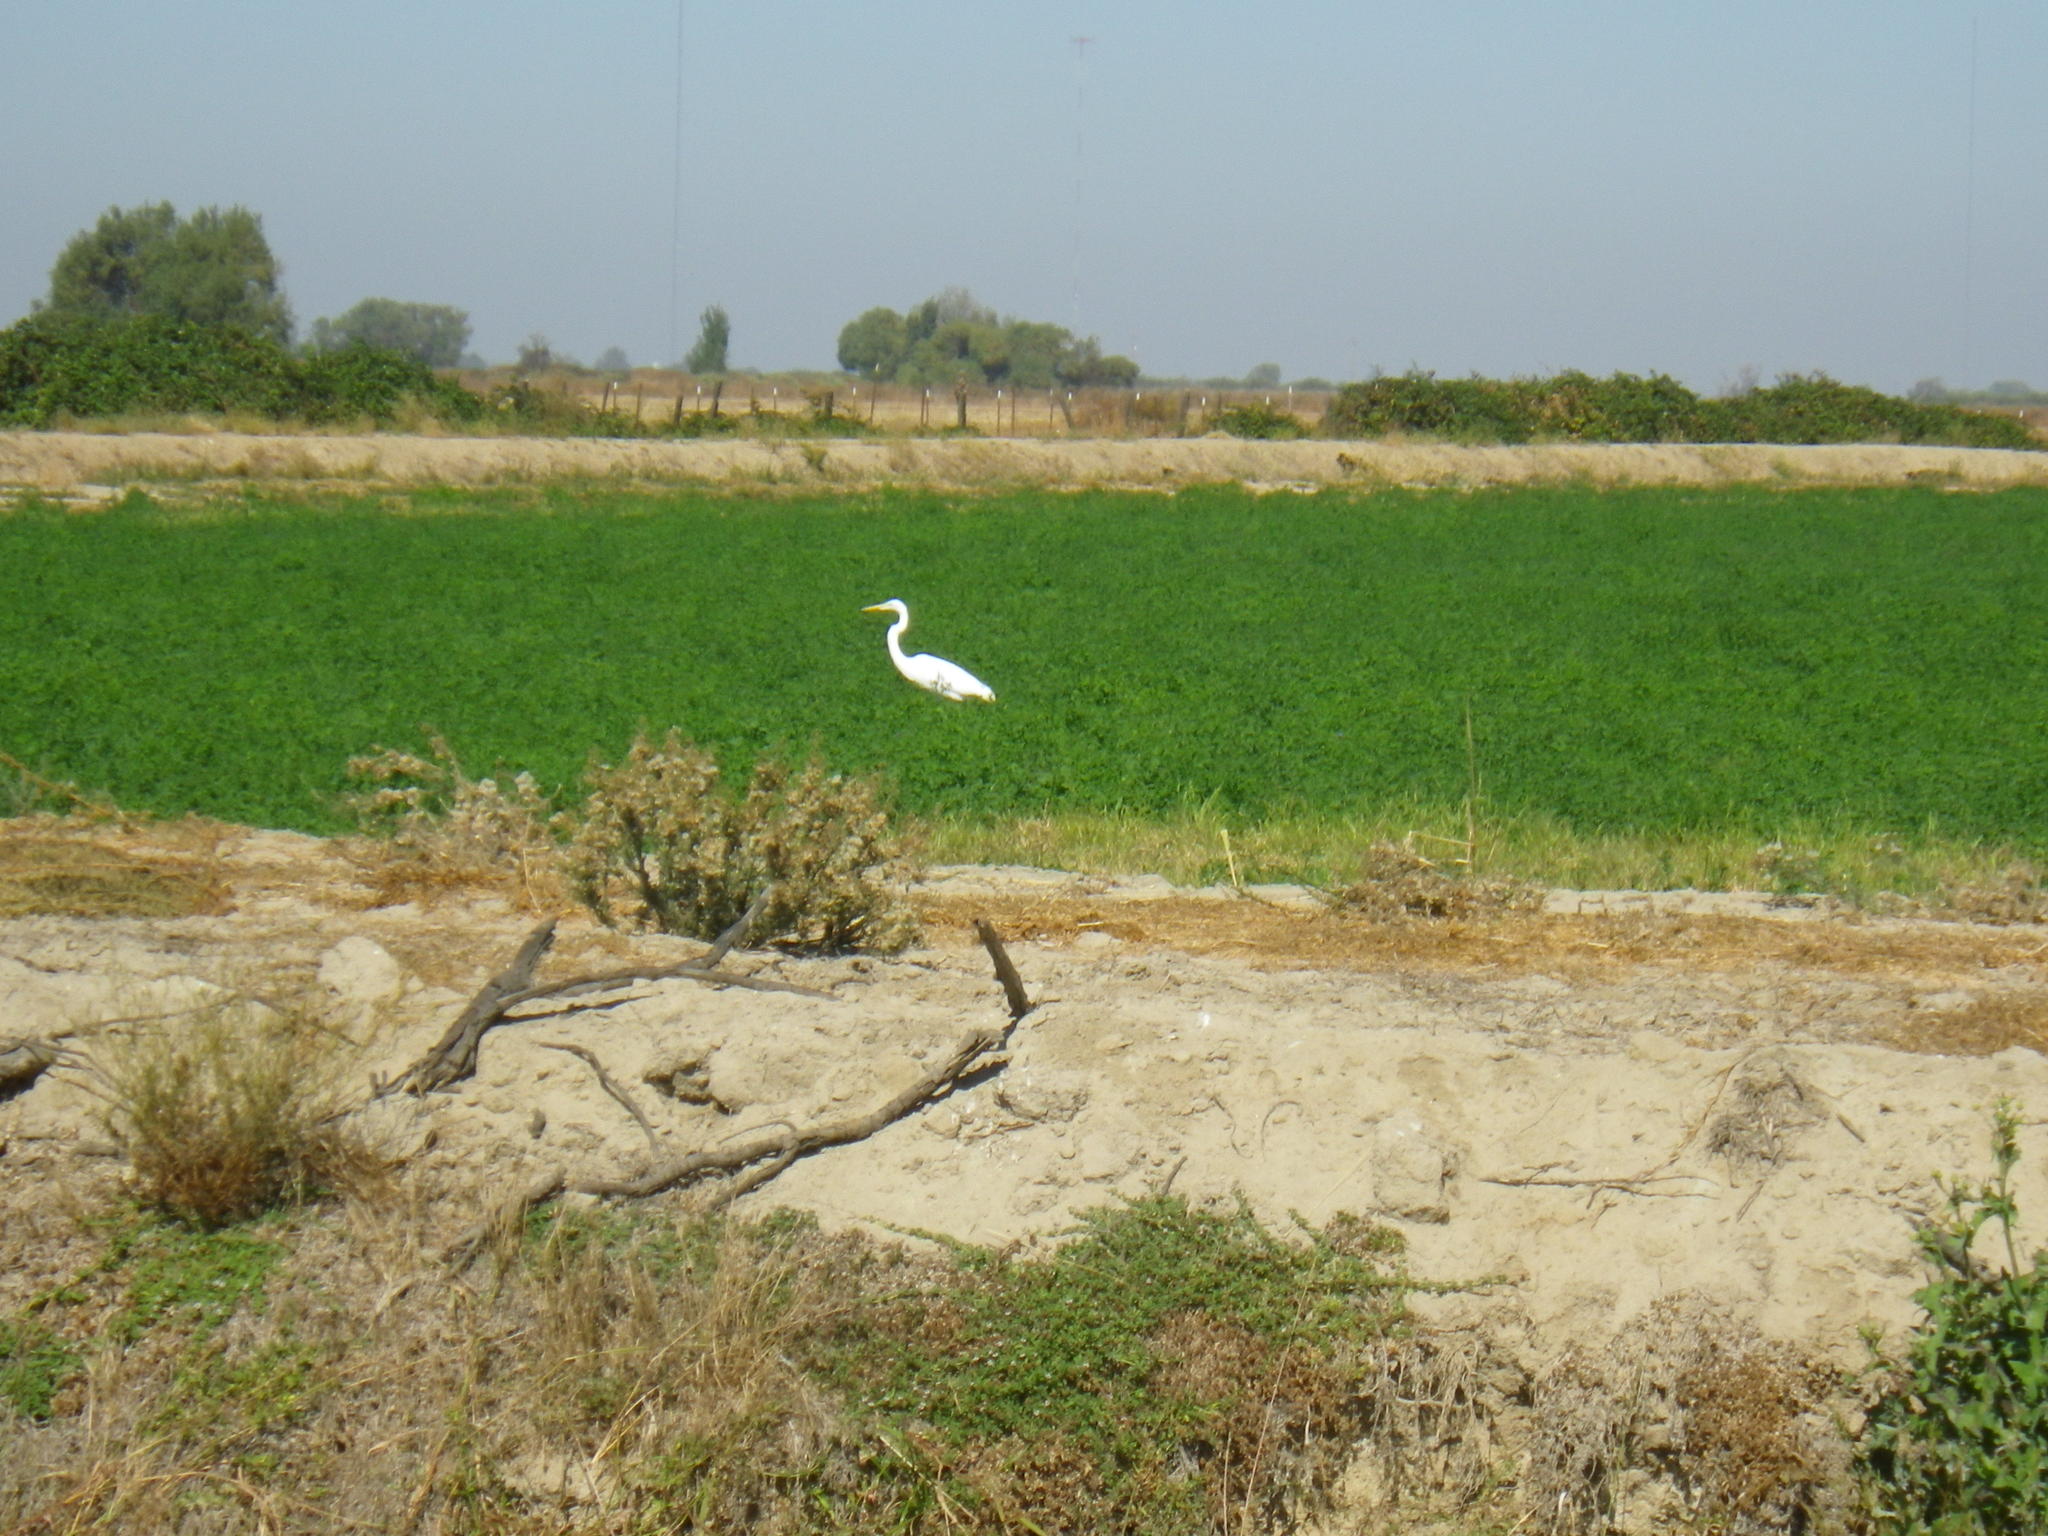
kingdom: Animalia
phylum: Chordata
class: Aves
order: Pelecaniformes
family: Ardeidae
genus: Ardea
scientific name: Ardea alba
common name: Great egret
